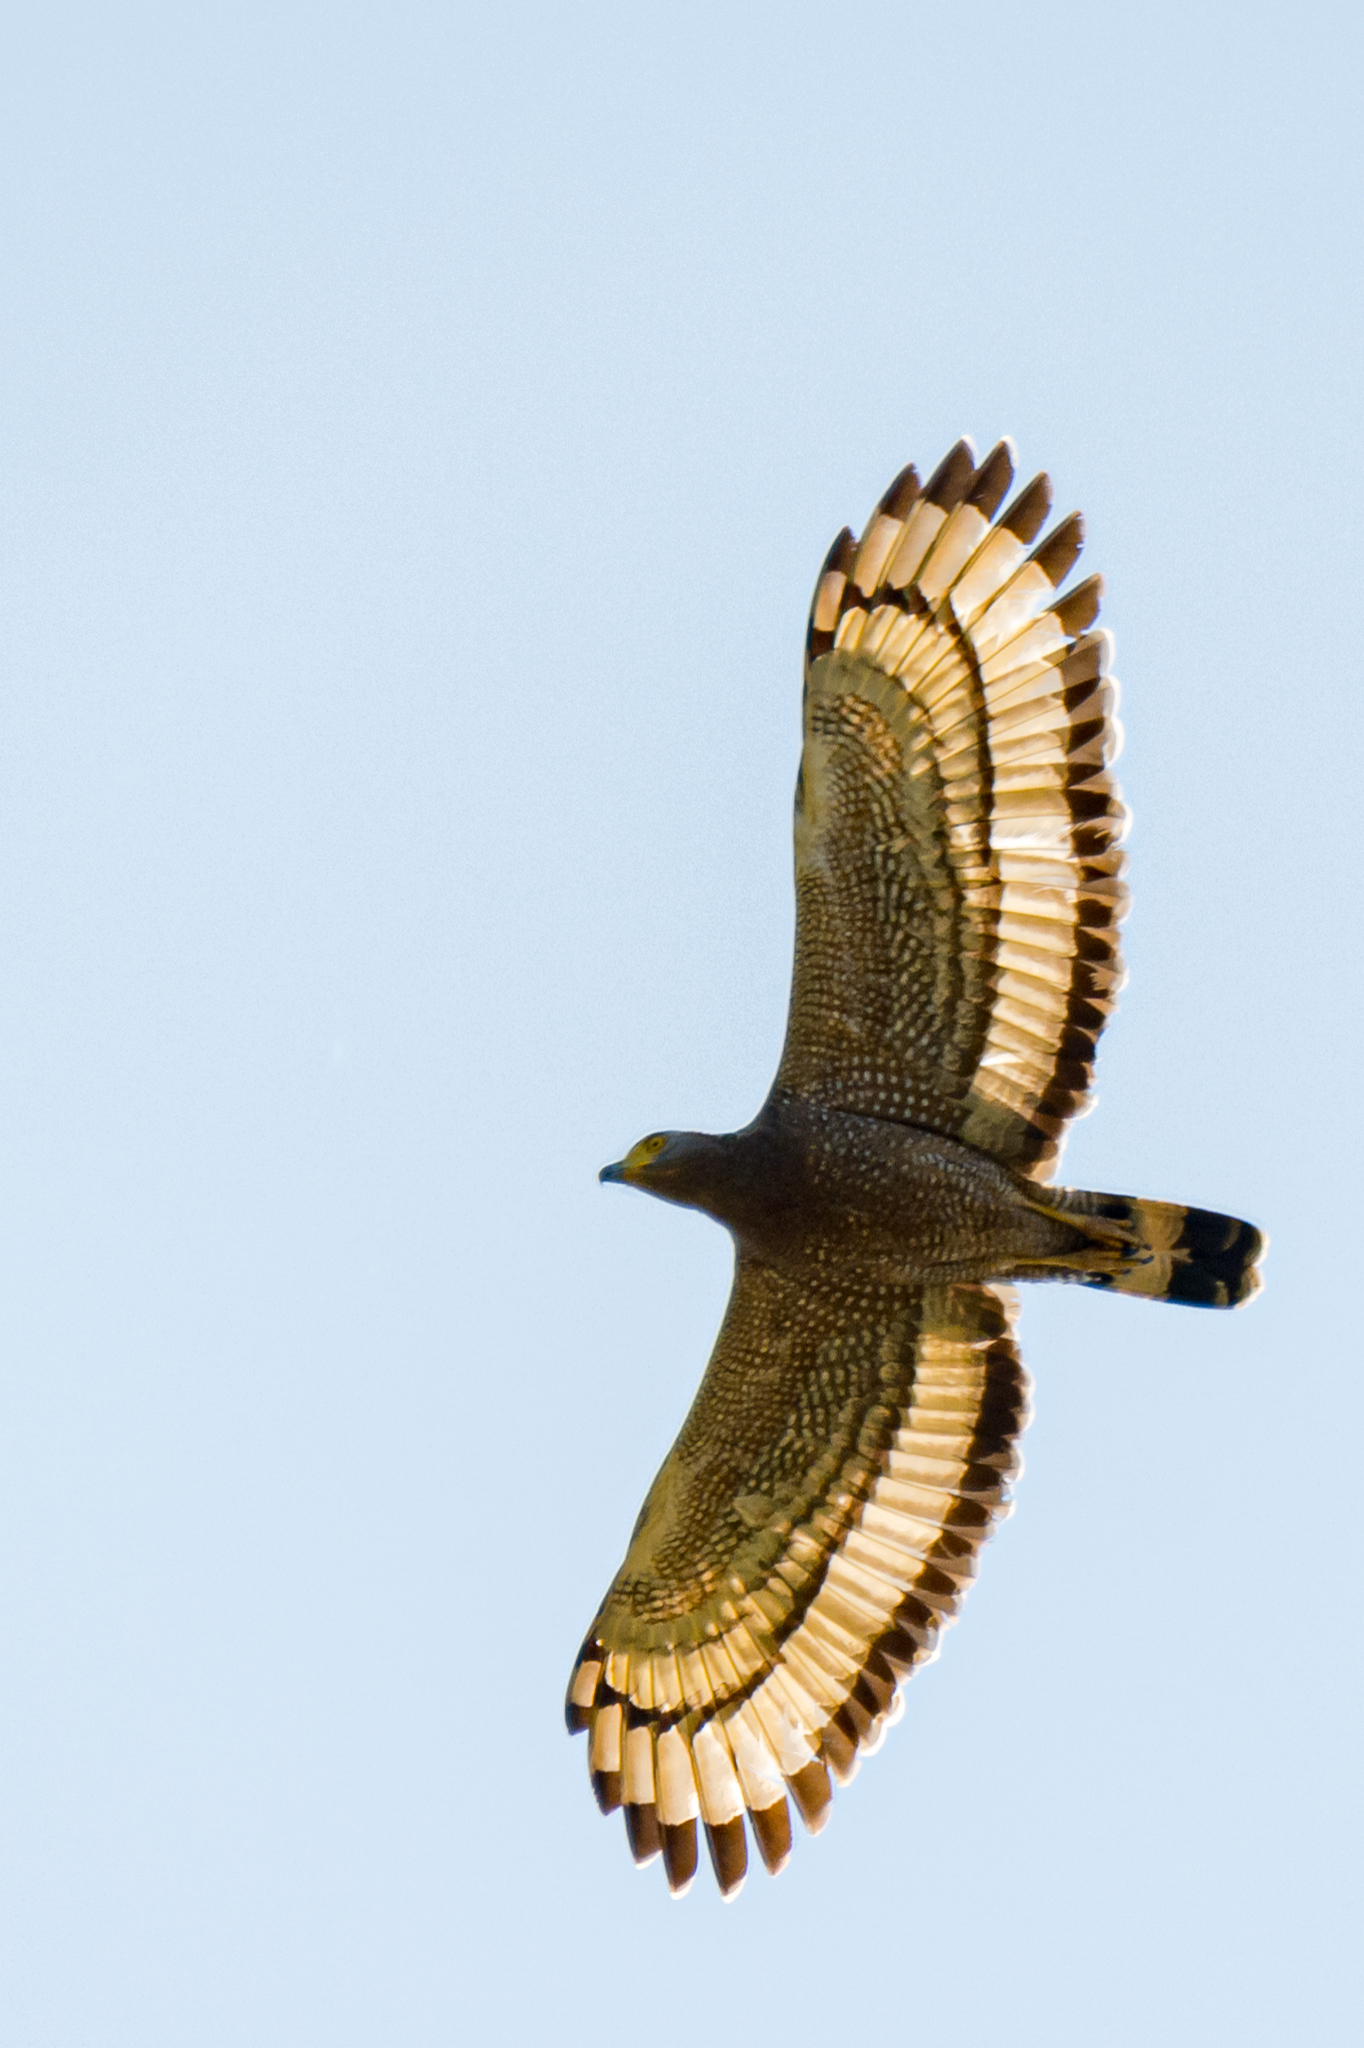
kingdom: Animalia
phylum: Chordata
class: Aves
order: Accipitriformes
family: Accipitridae
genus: Spilornis
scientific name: Spilornis cheela
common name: Crested serpent eagle
